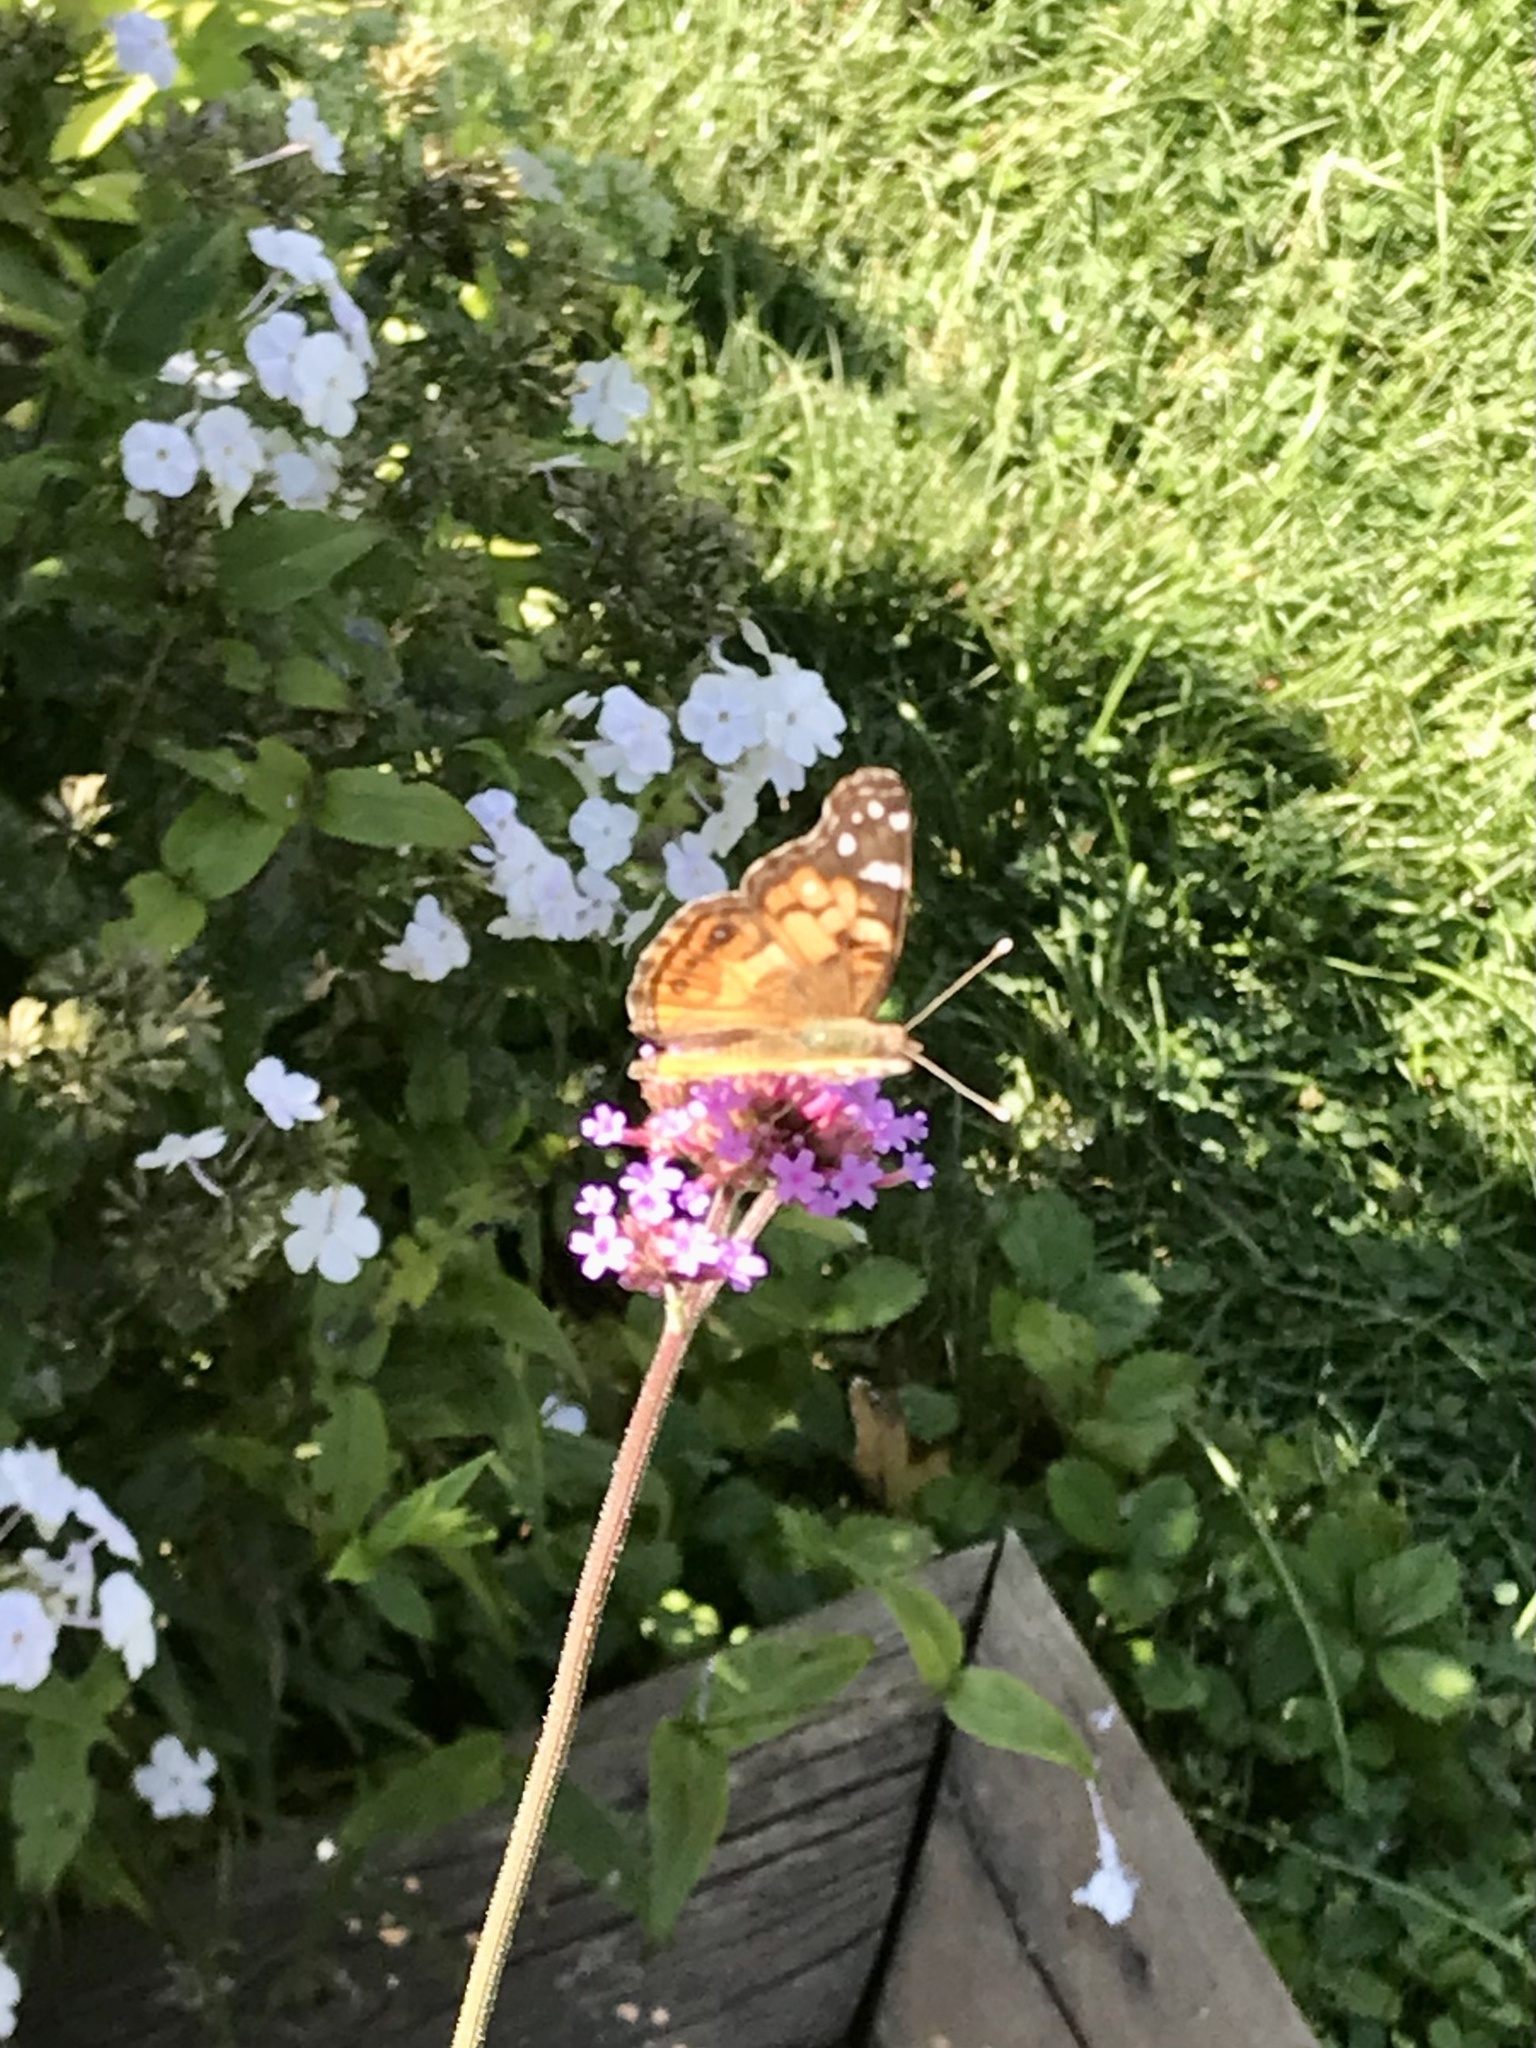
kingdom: Animalia
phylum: Arthropoda
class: Insecta
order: Lepidoptera
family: Nymphalidae
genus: Vanessa
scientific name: Vanessa virginiensis
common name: American lady
